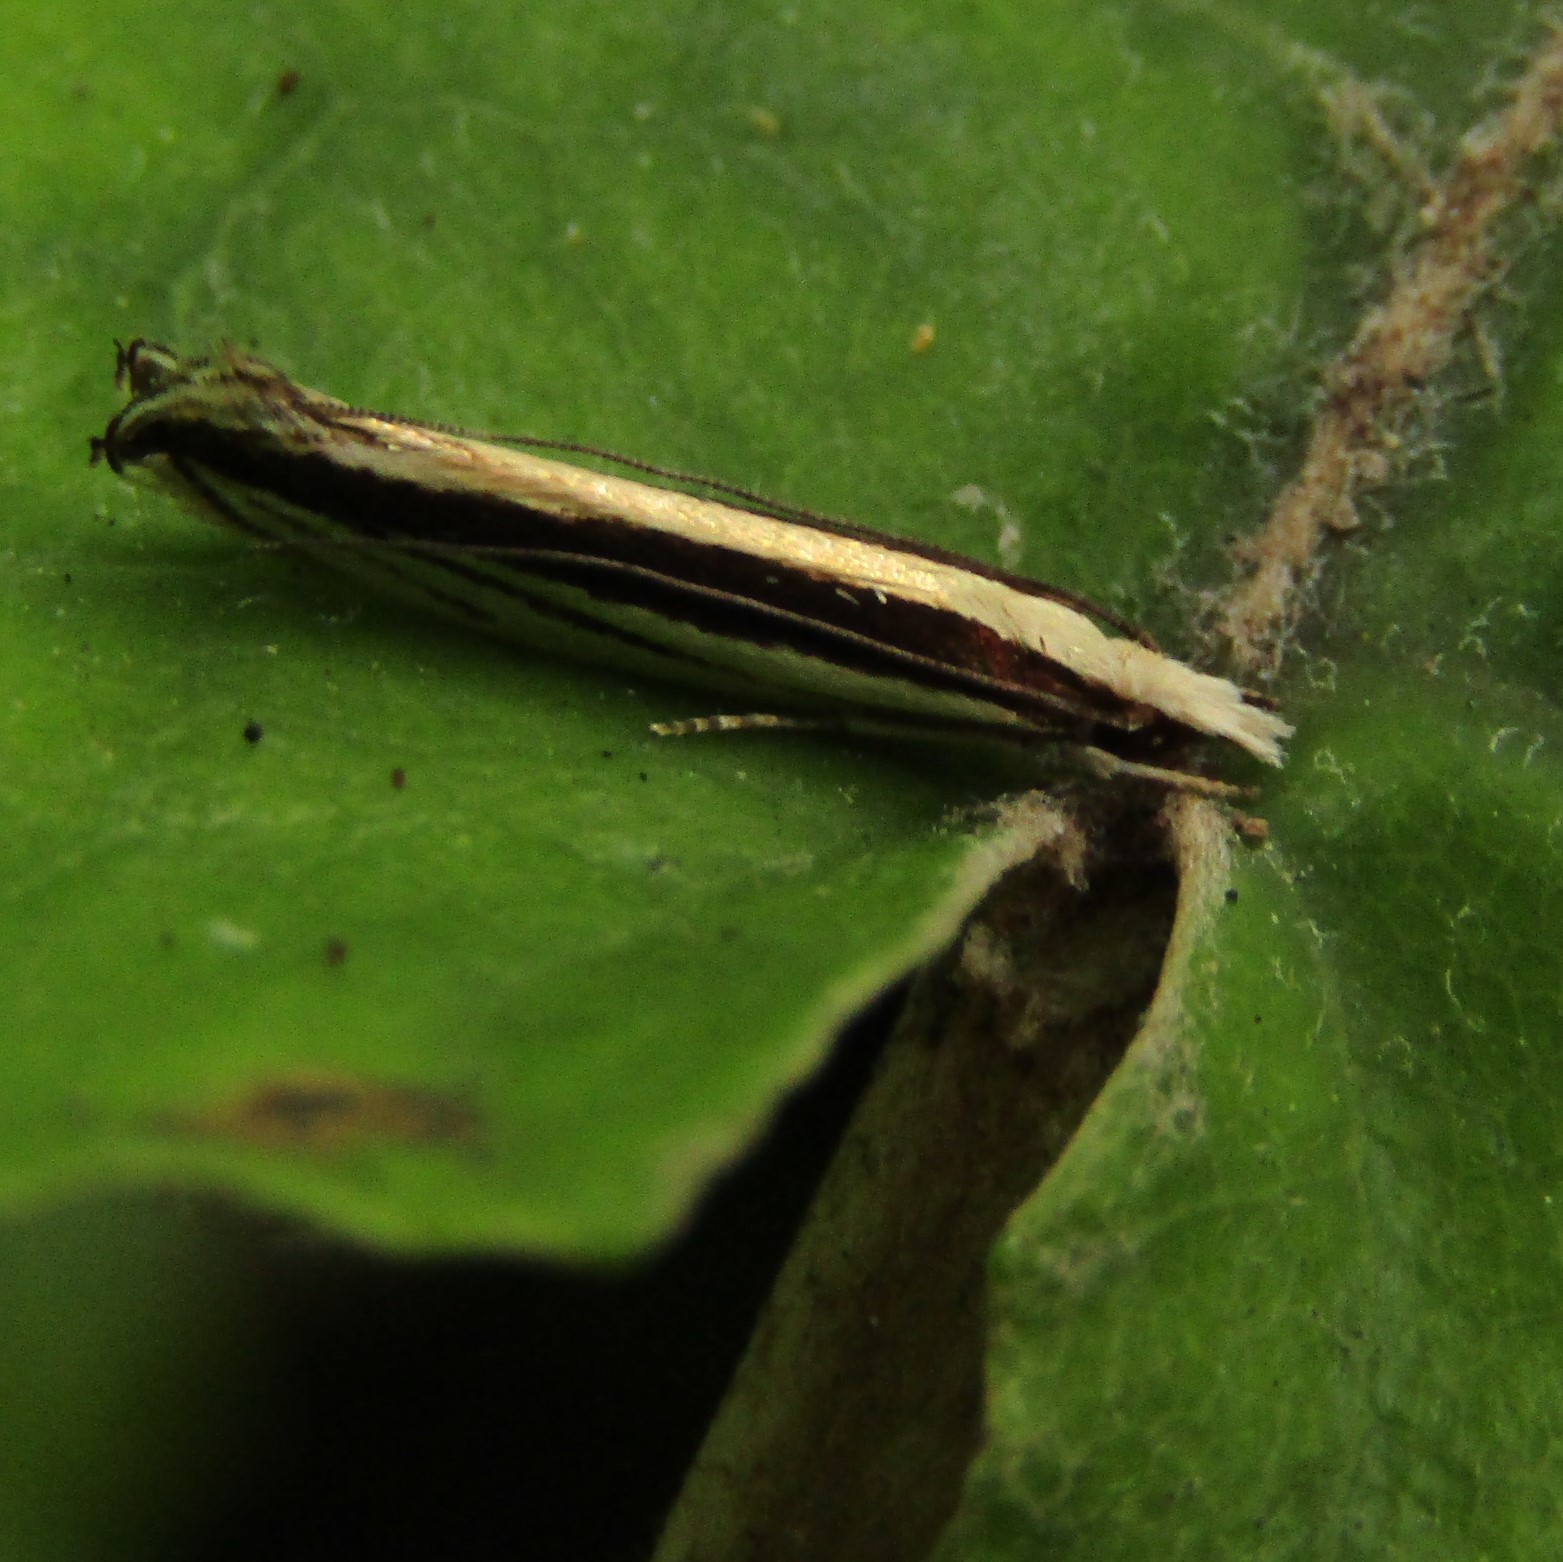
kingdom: Animalia
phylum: Arthropoda
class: Insecta
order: Lepidoptera
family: Tineidae
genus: Erechthias
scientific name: Erechthias stilbella
